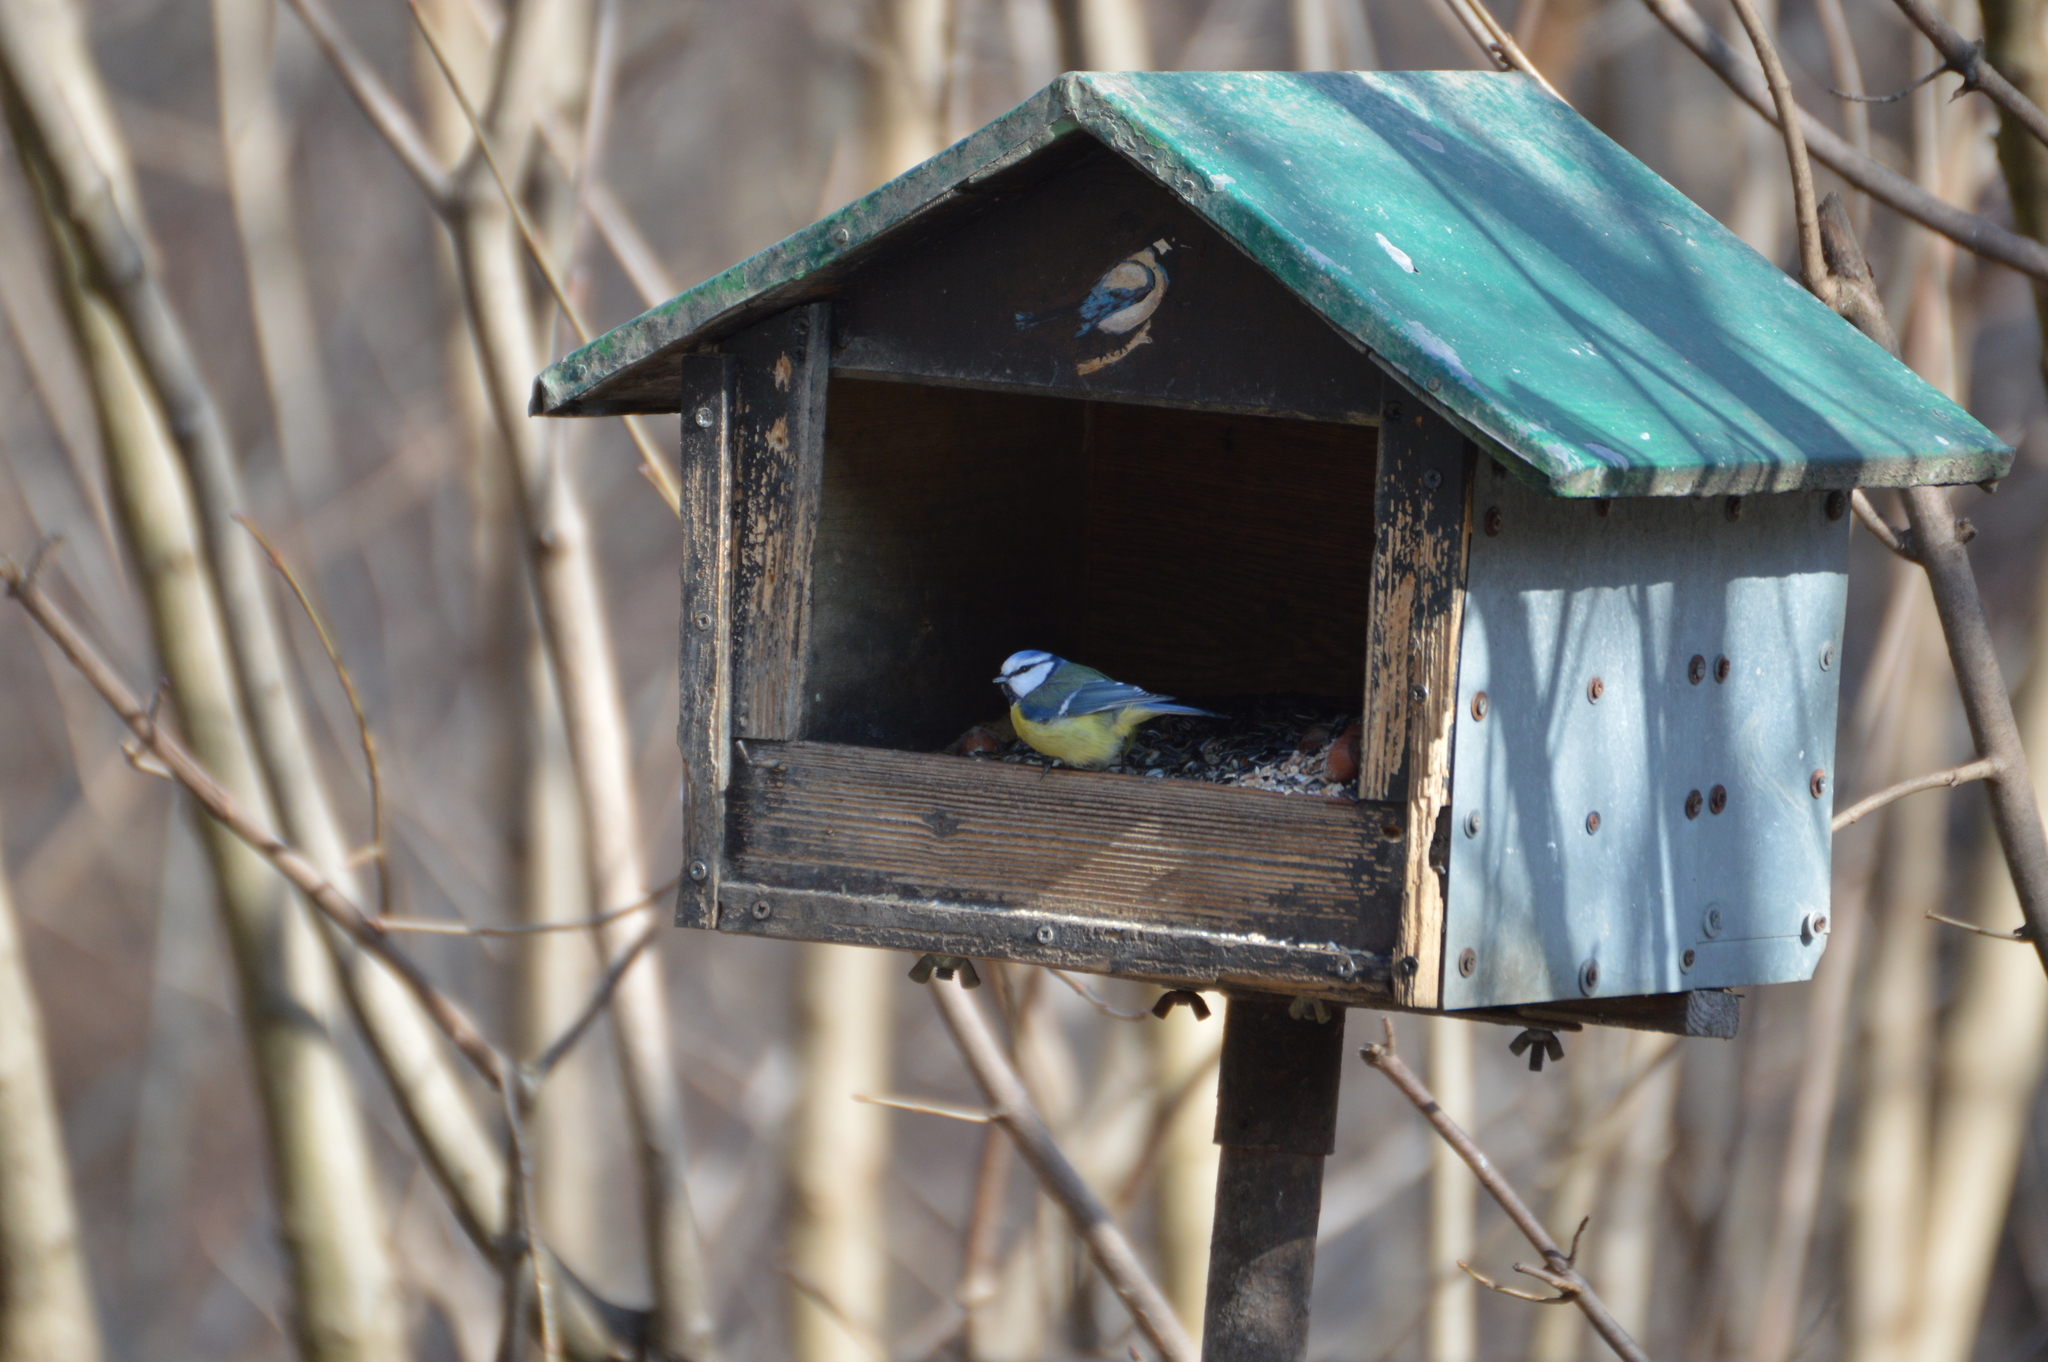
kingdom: Animalia
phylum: Chordata
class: Aves
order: Passeriformes
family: Paridae
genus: Cyanistes
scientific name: Cyanistes caeruleus
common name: Eurasian blue tit
